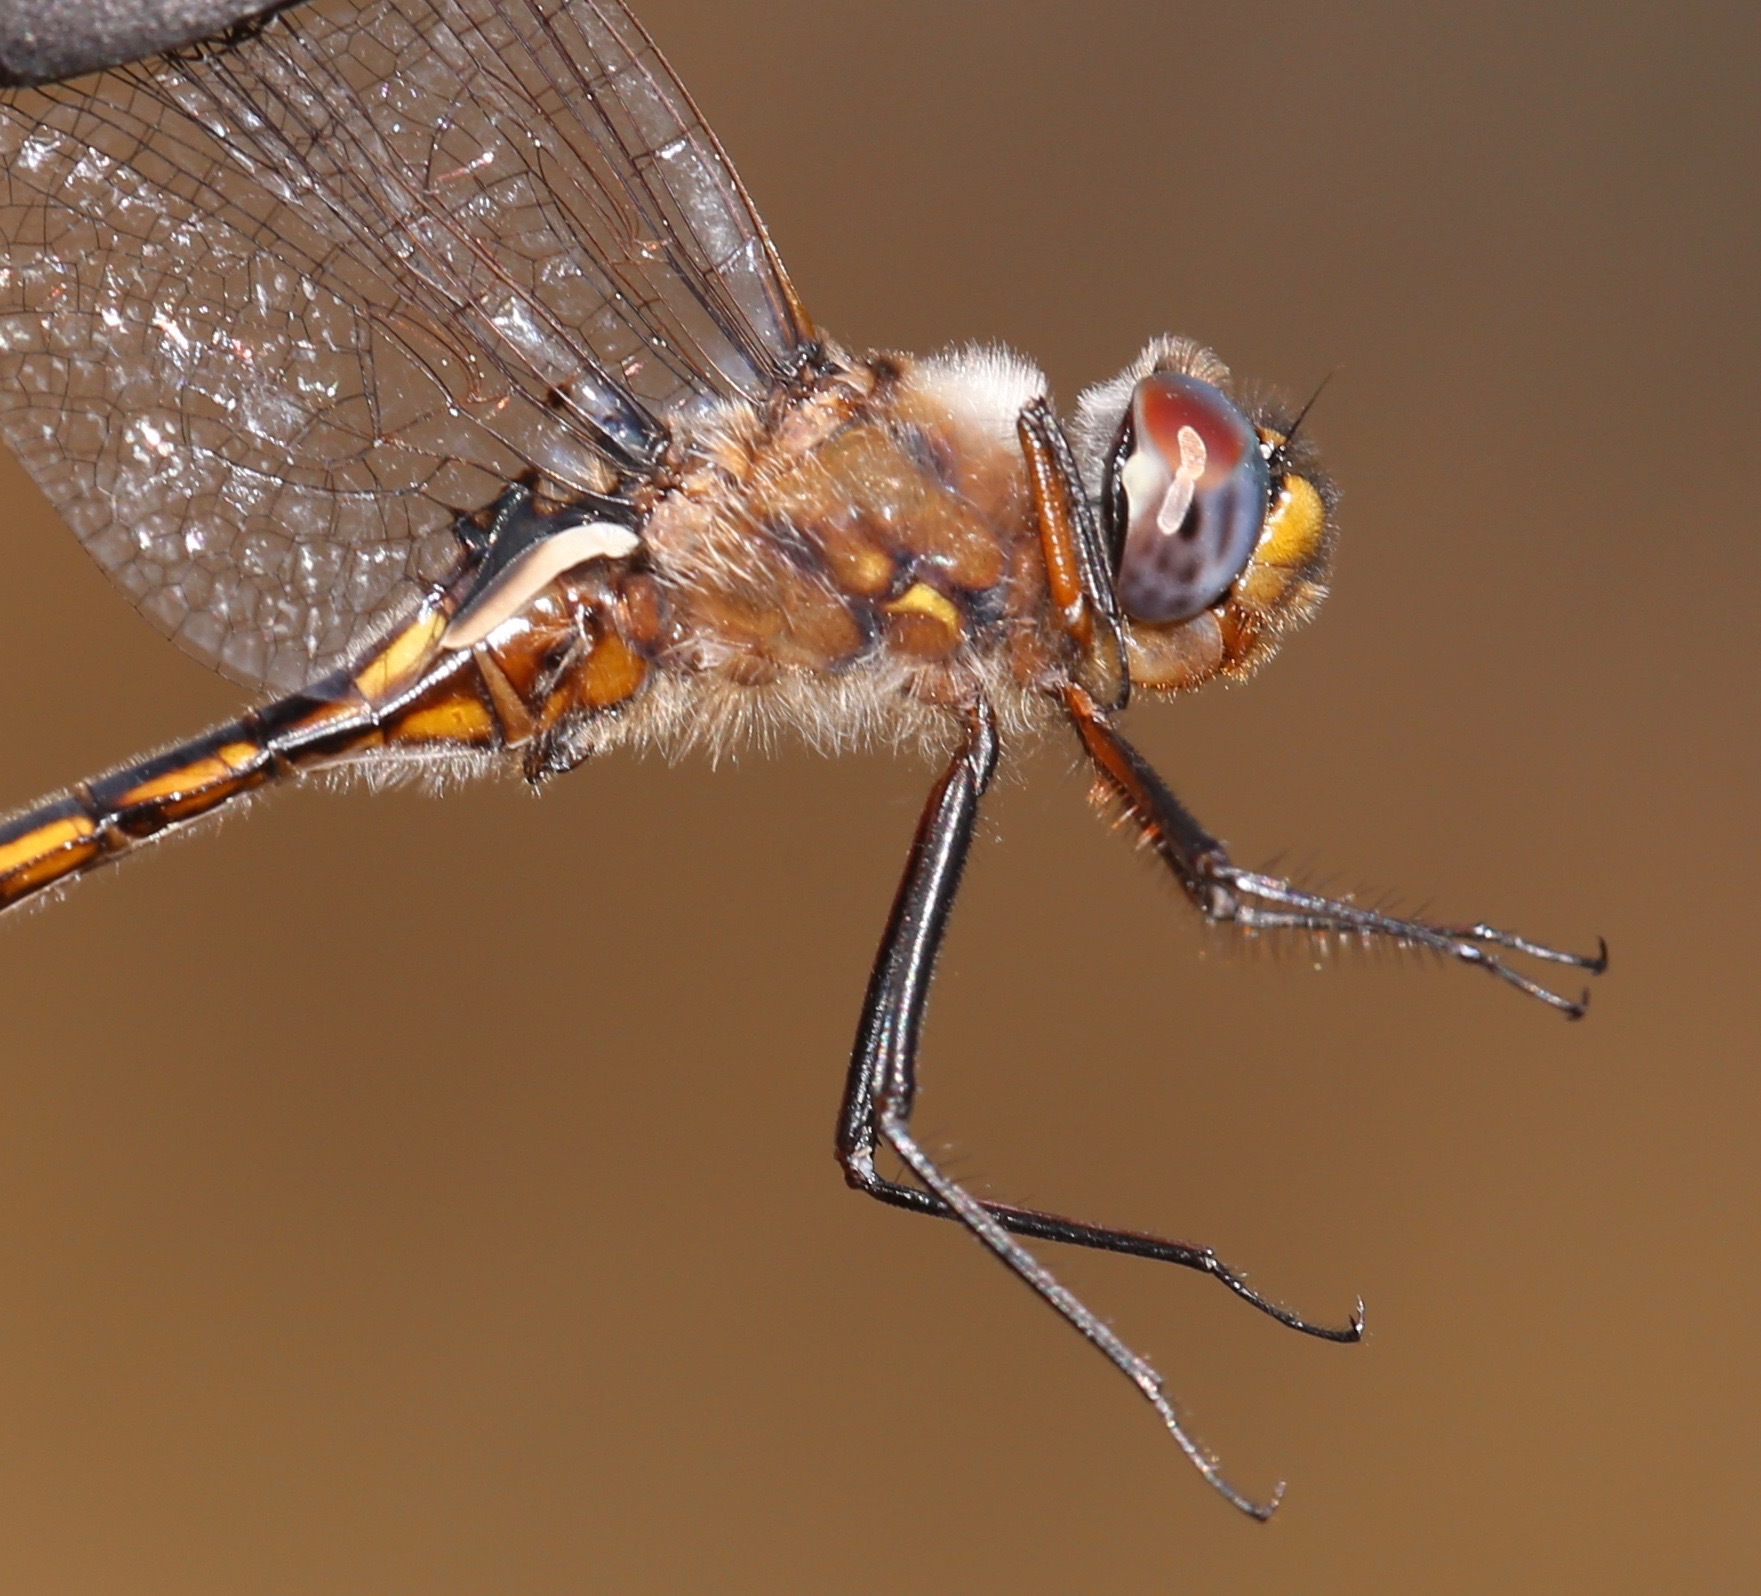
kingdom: Animalia
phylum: Arthropoda
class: Insecta
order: Odonata
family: Corduliidae
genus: Epitheca
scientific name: Epitheca costalis
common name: Slender baskettail
